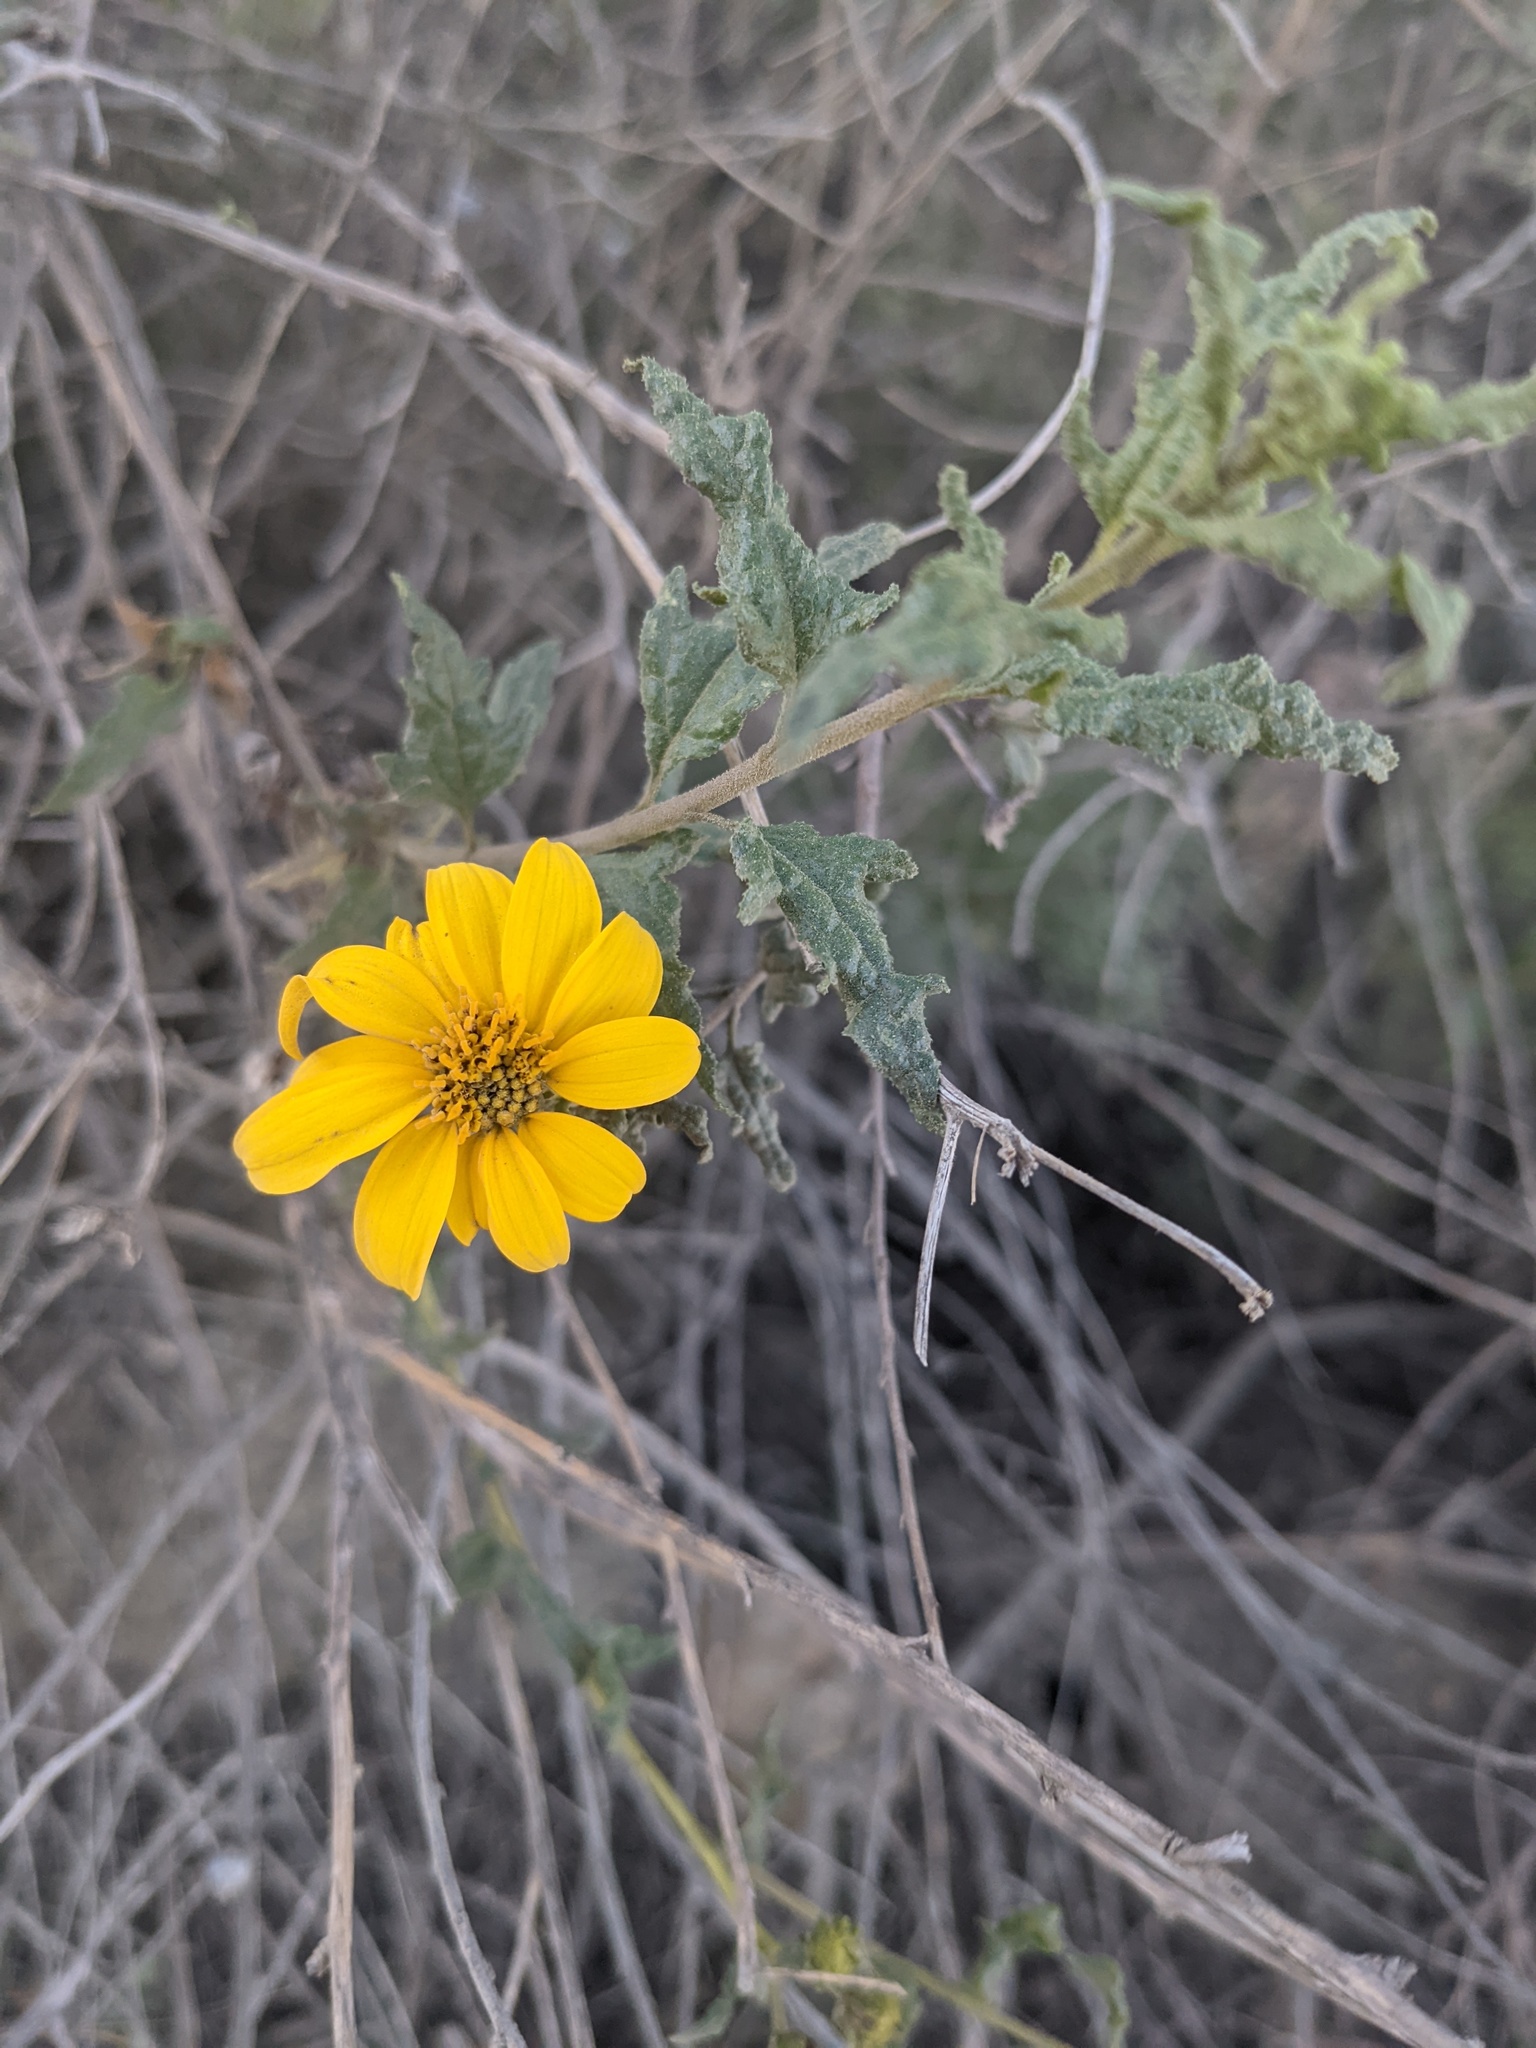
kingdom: Plantae
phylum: Tracheophyta
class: Magnoliopsida
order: Asterales
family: Asteraceae
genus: Bahiopsis
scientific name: Bahiopsis laciniata
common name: San diego county viguiera
